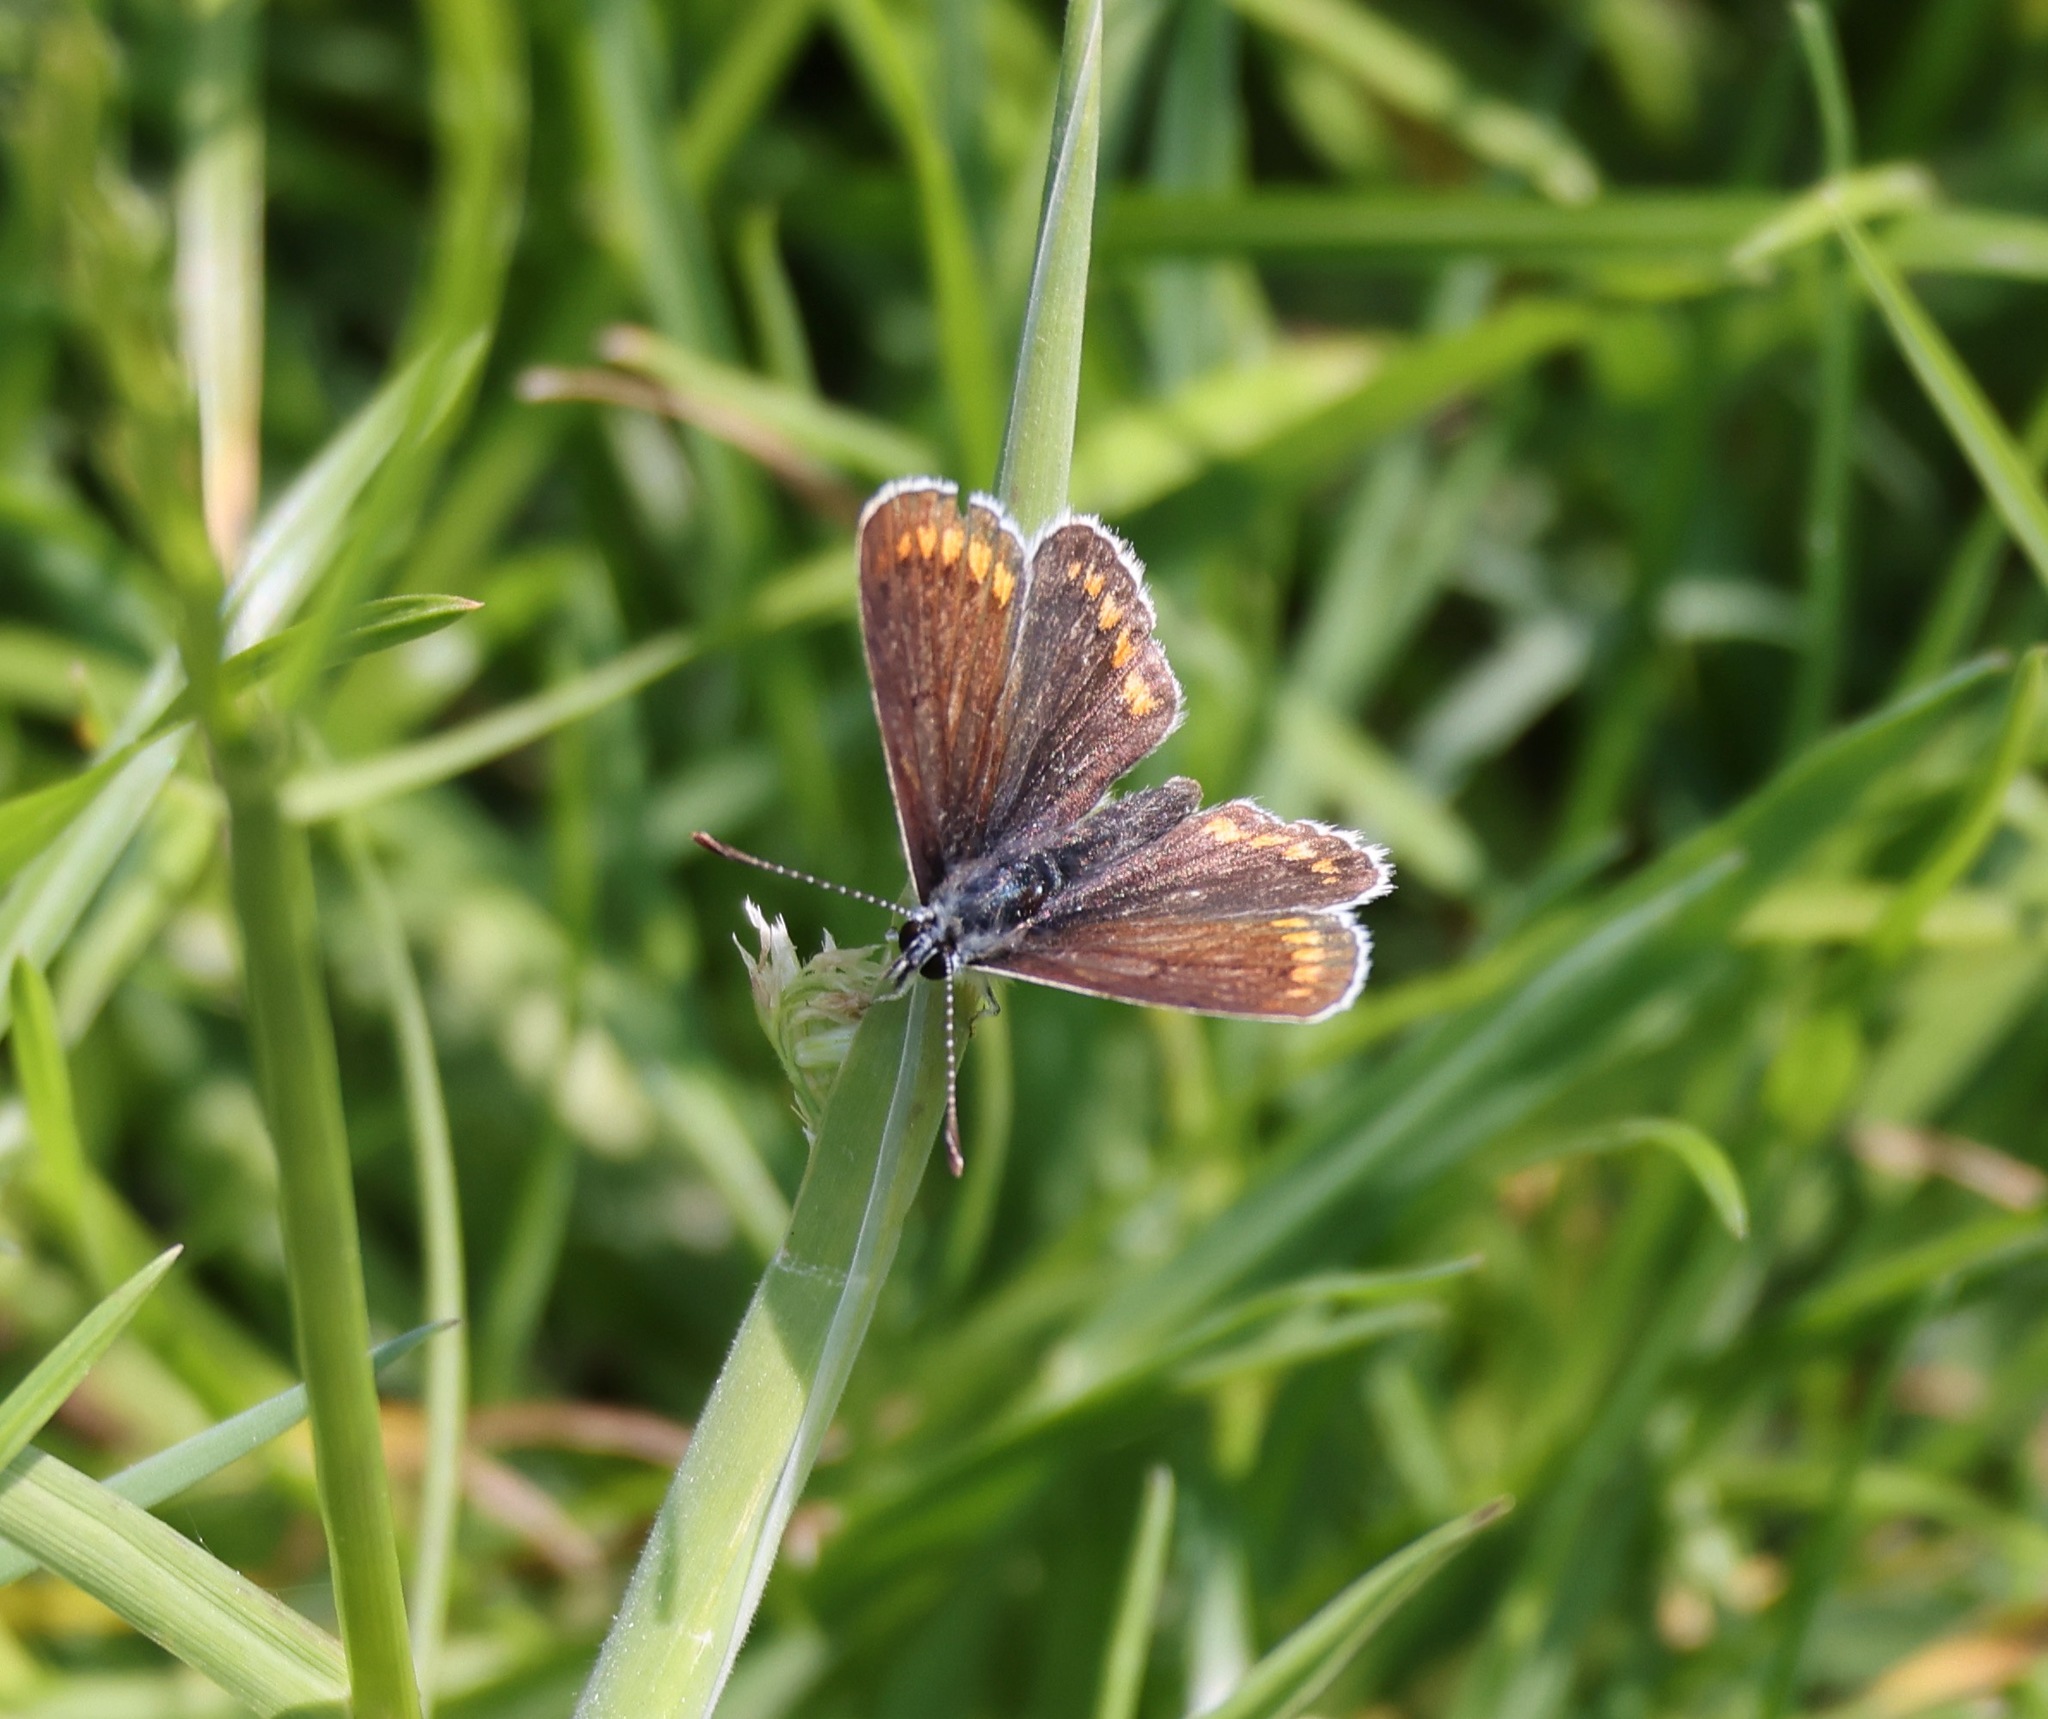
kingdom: Animalia
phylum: Arthropoda
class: Insecta
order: Lepidoptera
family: Lycaenidae
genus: Aricia
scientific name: Aricia agestis
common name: Brown argus
